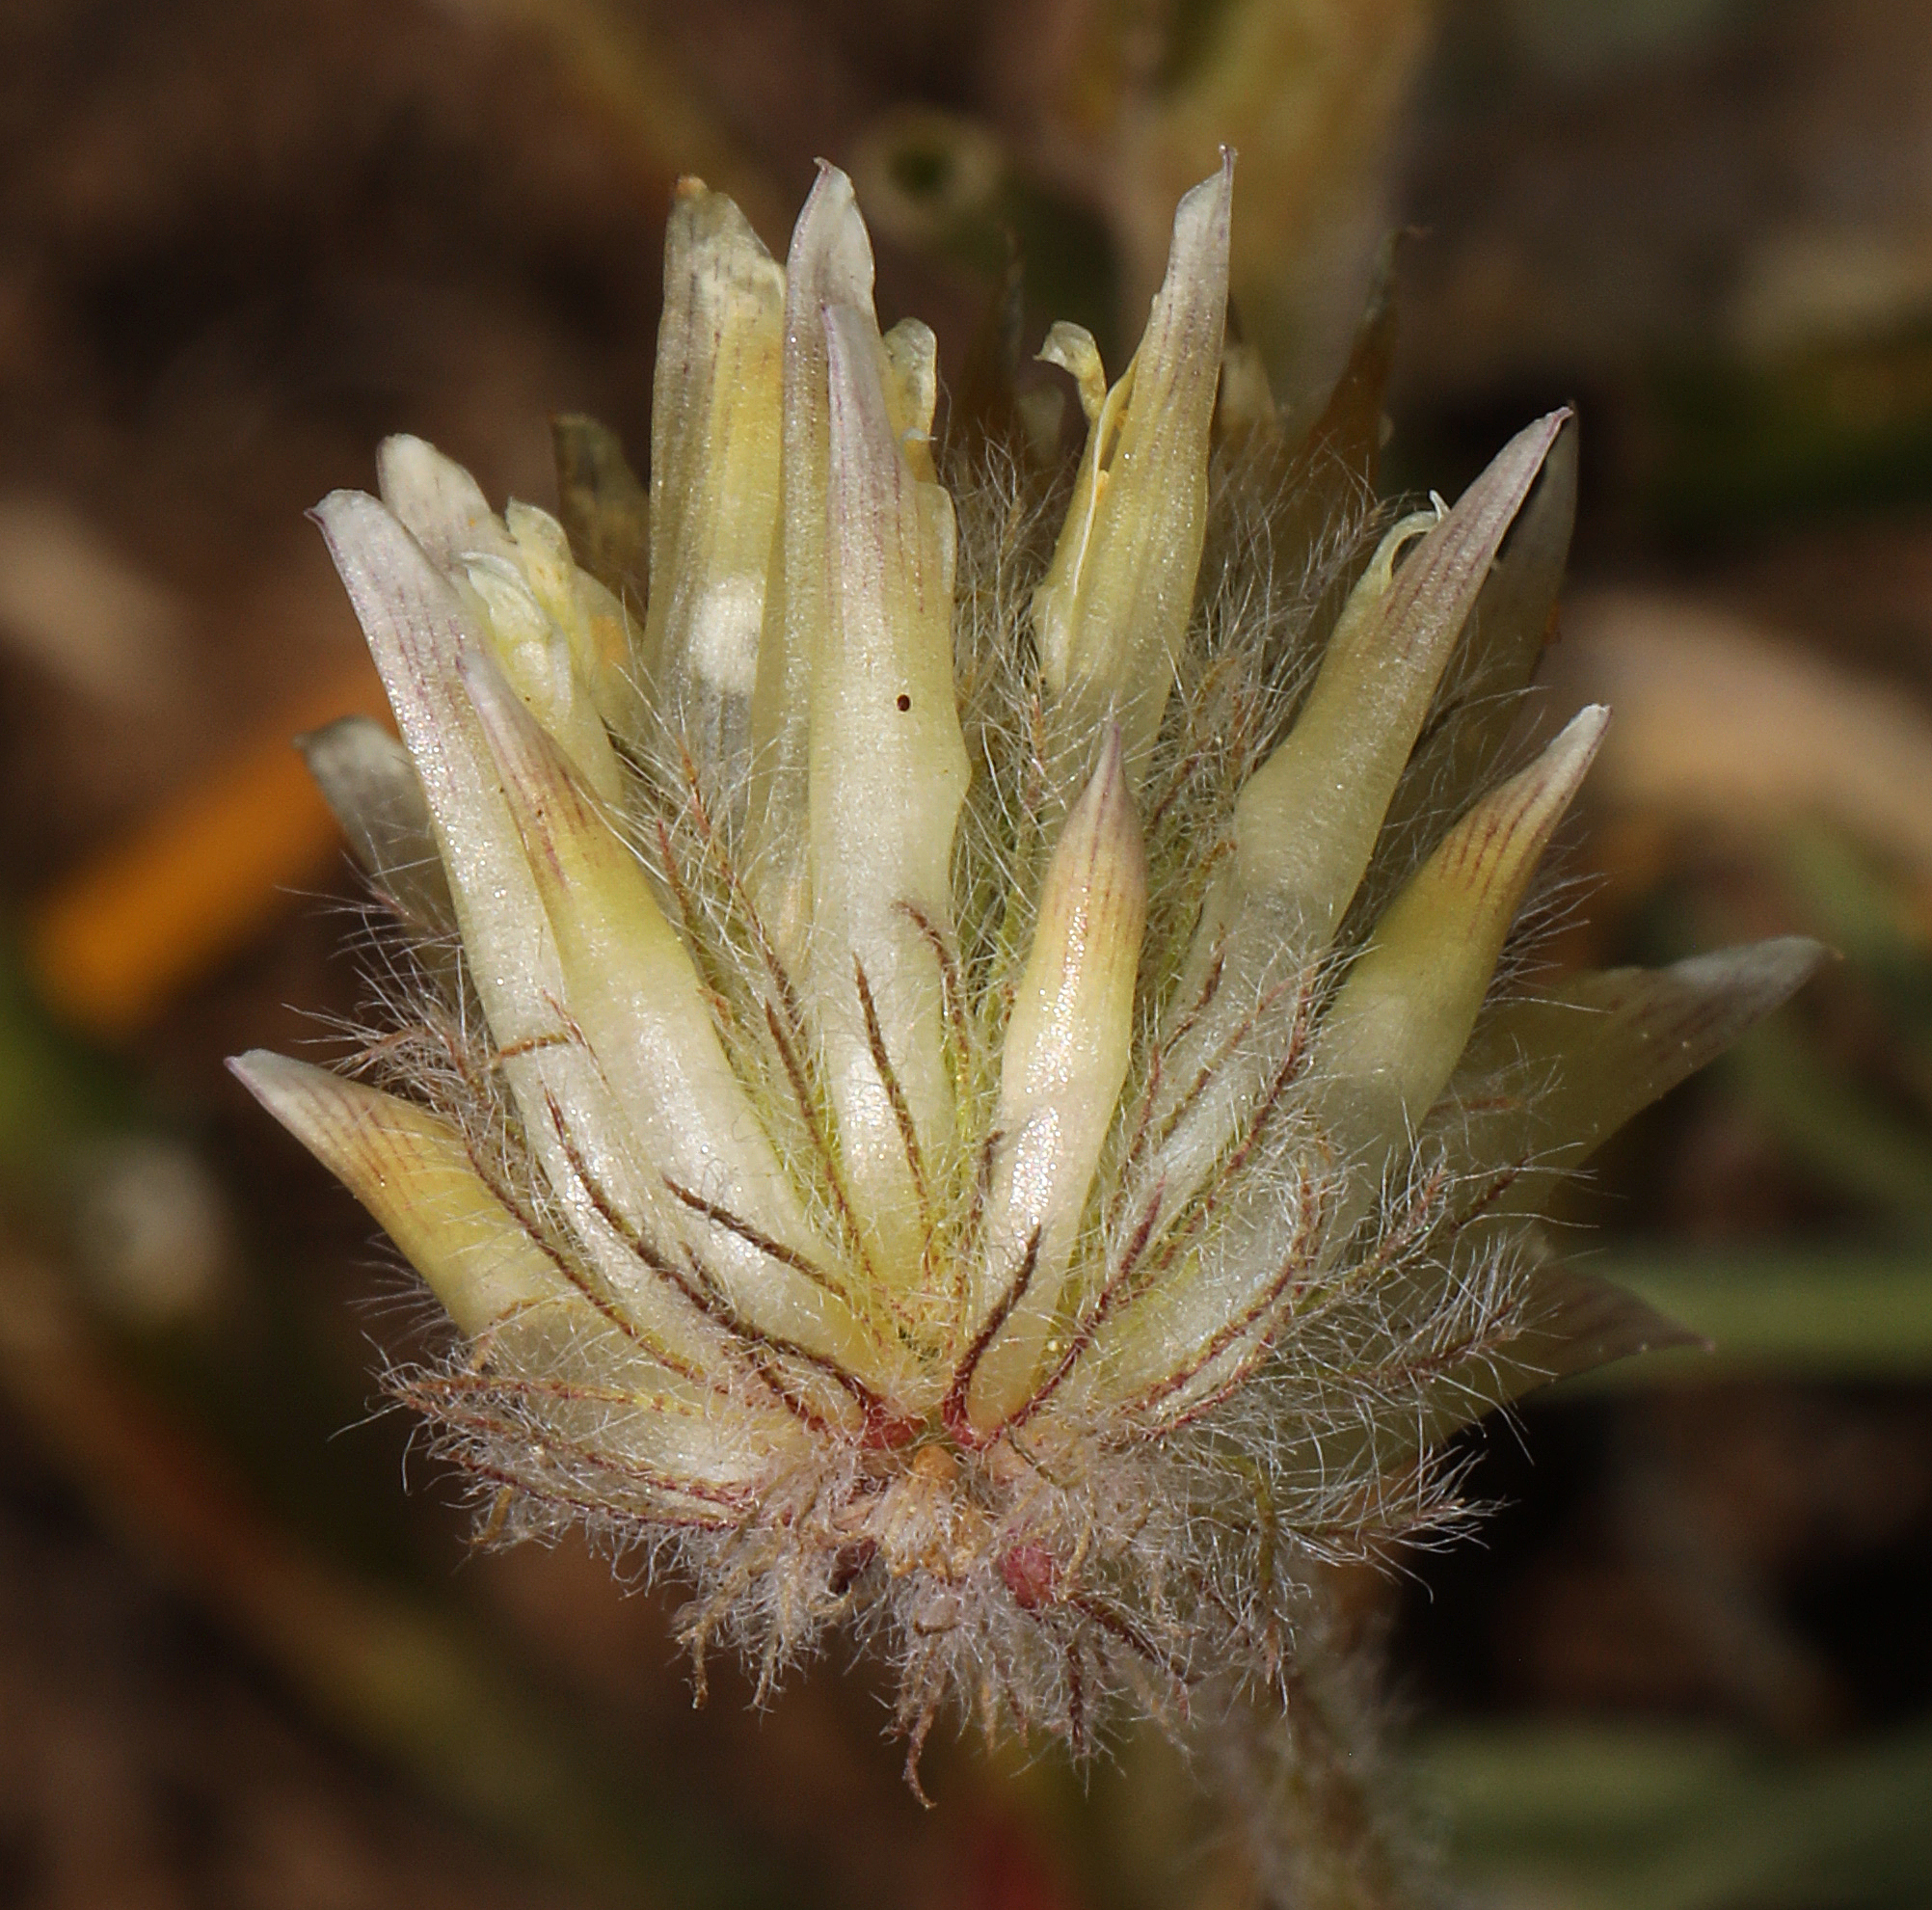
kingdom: Plantae
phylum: Tracheophyta
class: Magnoliopsida
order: Fabales
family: Fabaceae
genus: Trifolium
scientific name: Trifolium eriocephalum
